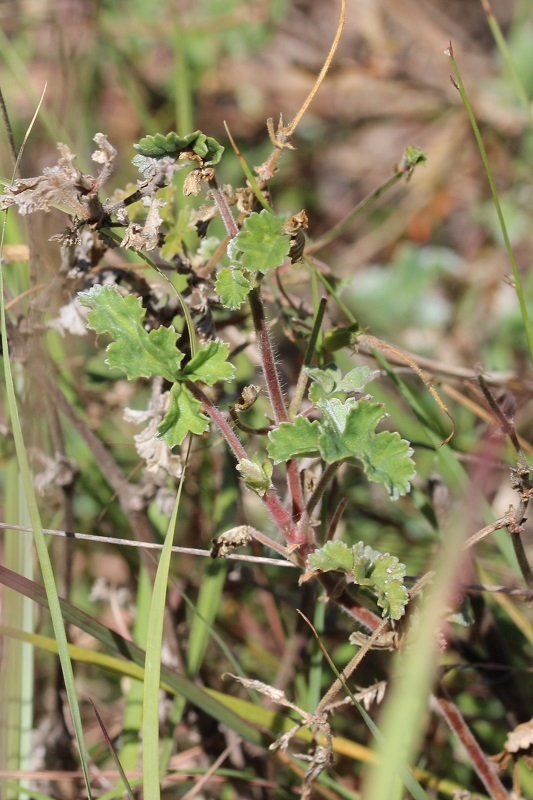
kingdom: Plantae
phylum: Tracheophyta
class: Magnoliopsida
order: Geraniales
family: Geraniaceae
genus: Pelargonium
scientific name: Pelargonium candicans
